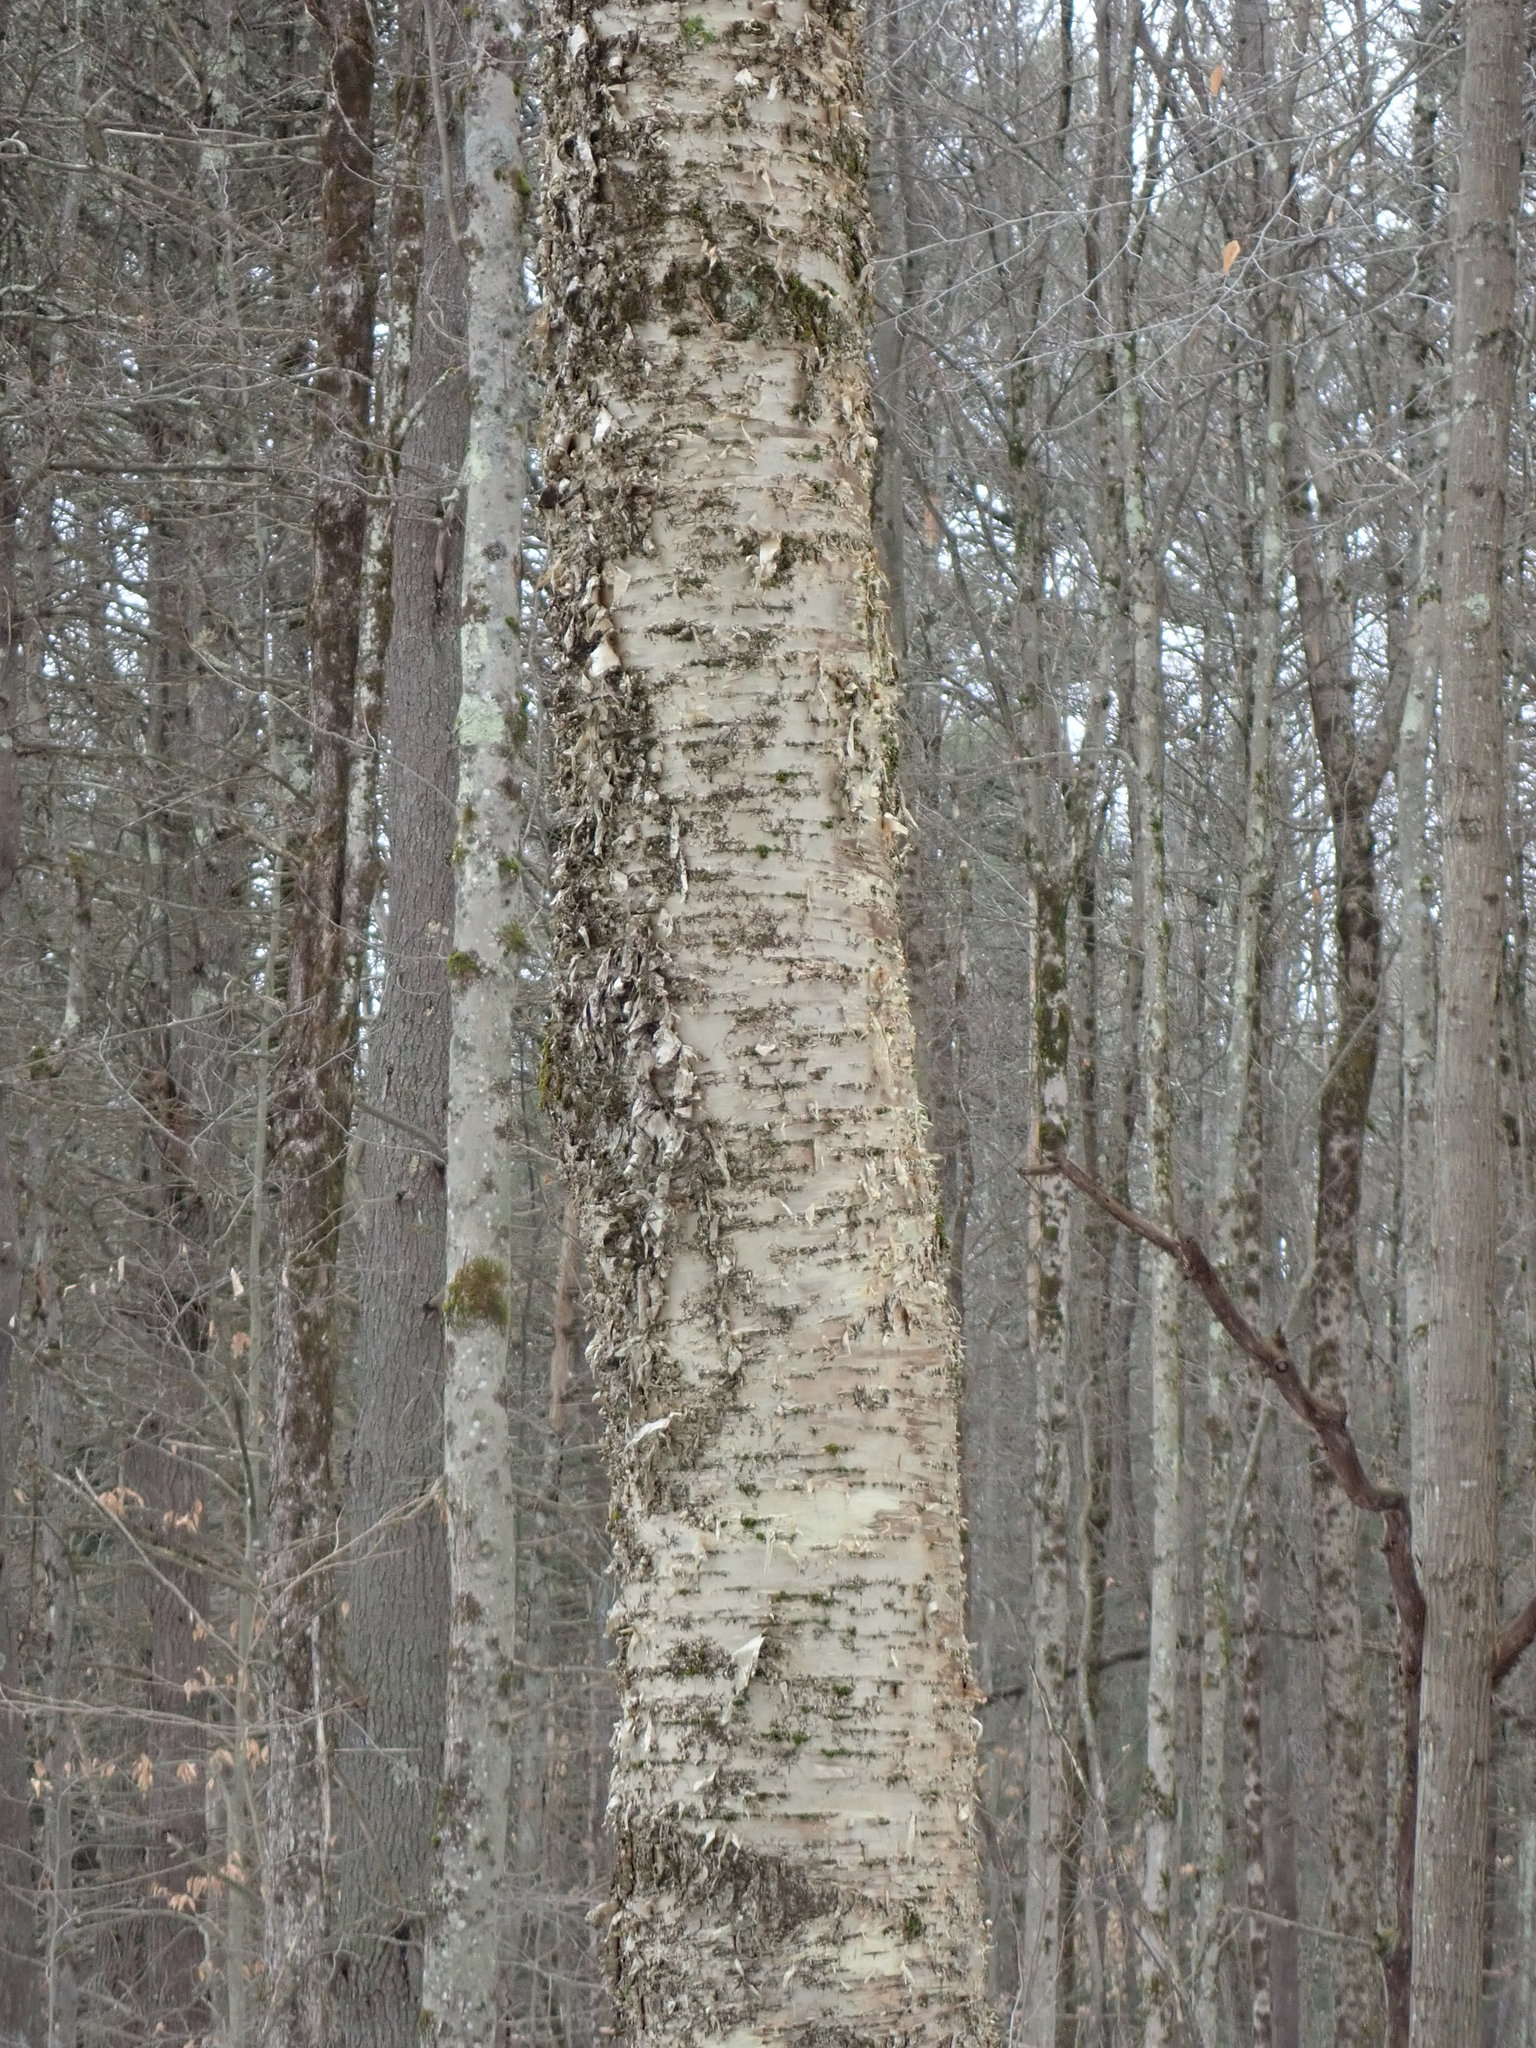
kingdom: Plantae
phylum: Tracheophyta
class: Magnoliopsida
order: Fagales
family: Betulaceae
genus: Betula
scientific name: Betula alleghaniensis
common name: Yellow birch
